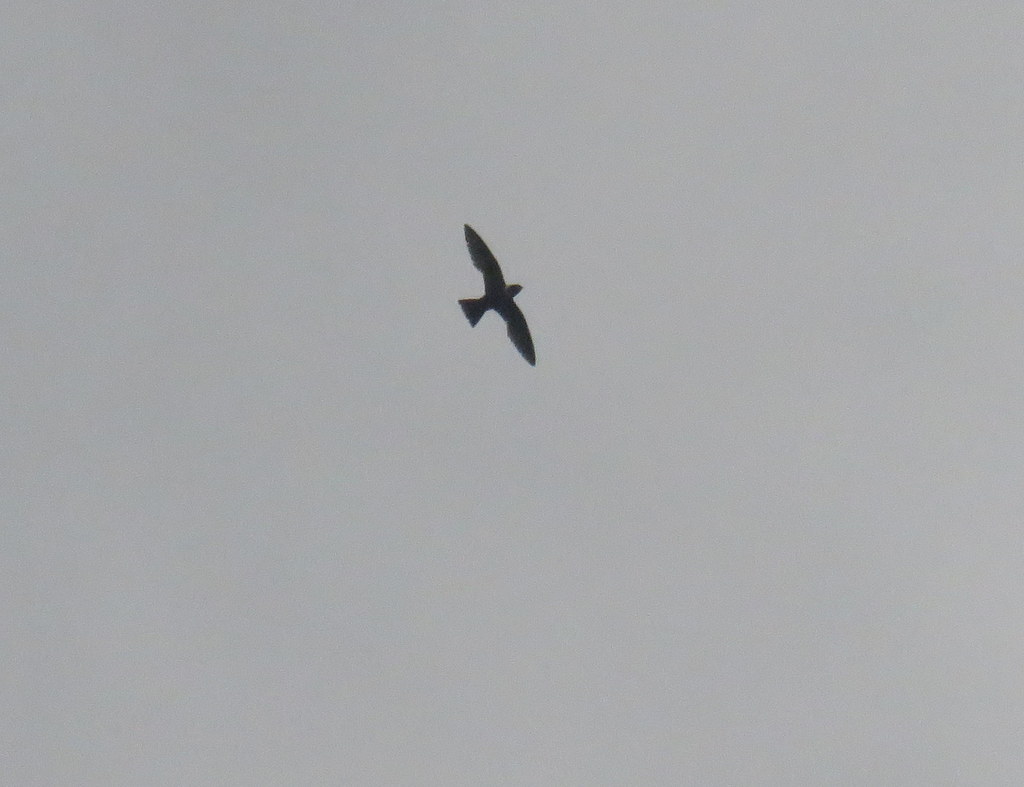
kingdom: Animalia
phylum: Chordata
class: Aves
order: Apodiformes
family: Apodidae
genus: Streptoprocne
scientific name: Streptoprocne zonaris
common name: White-collared swift
